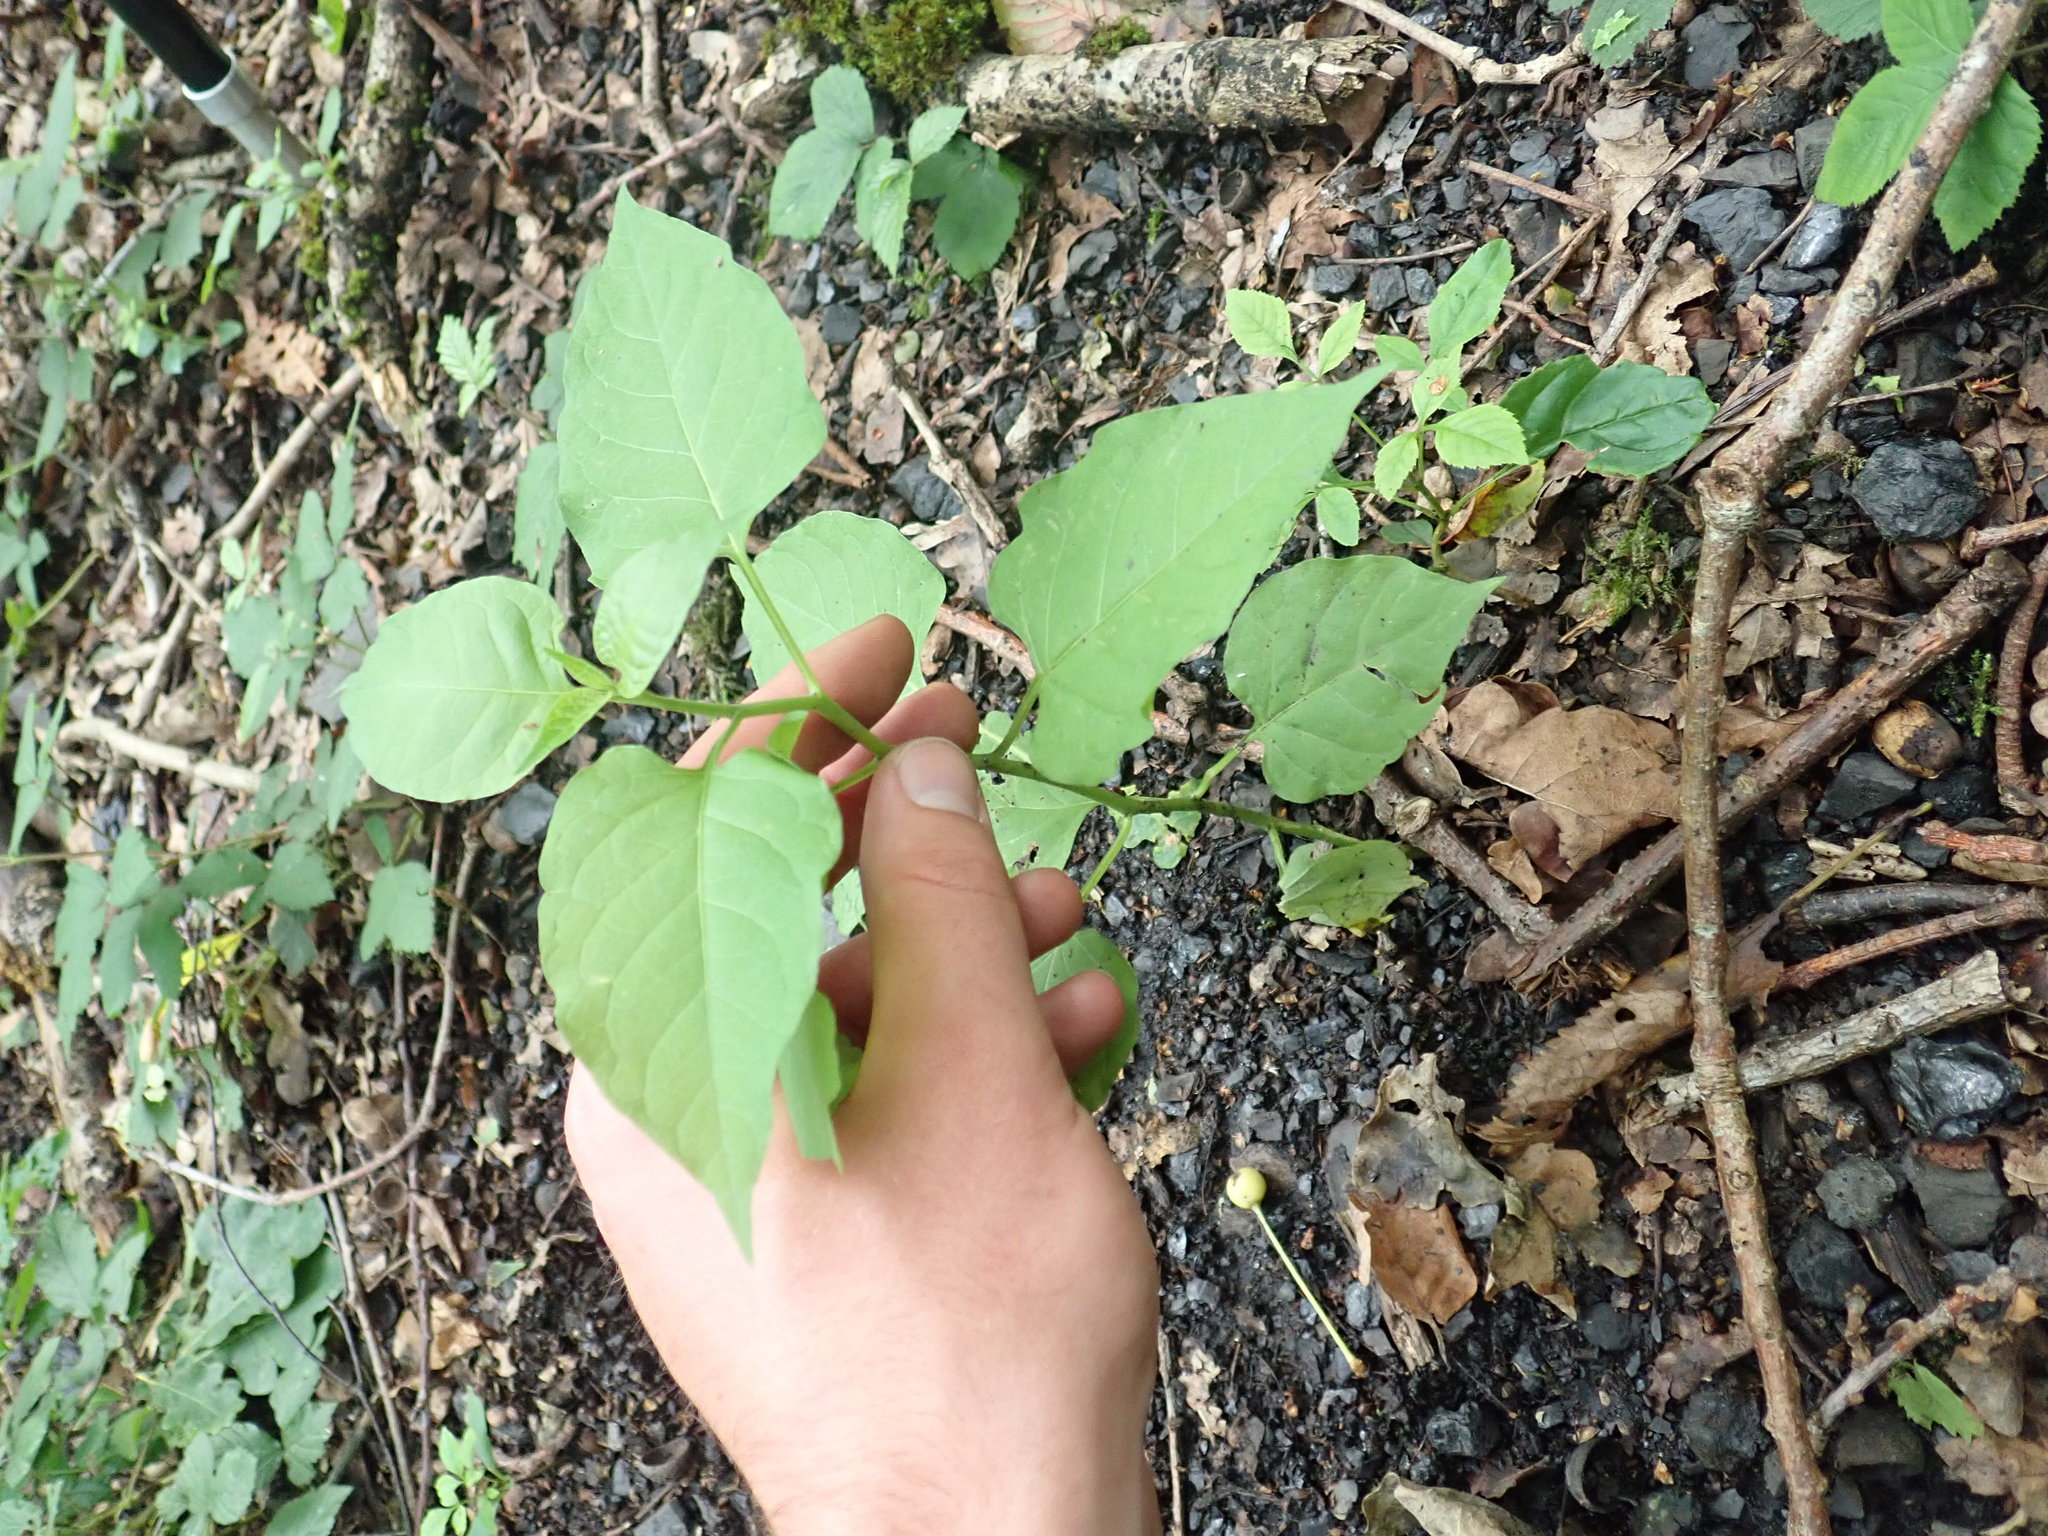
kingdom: Plantae
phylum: Tracheophyta
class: Magnoliopsida
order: Solanales
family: Solanaceae
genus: Solanum
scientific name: Solanum dulcamara
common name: Climbing nightshade
